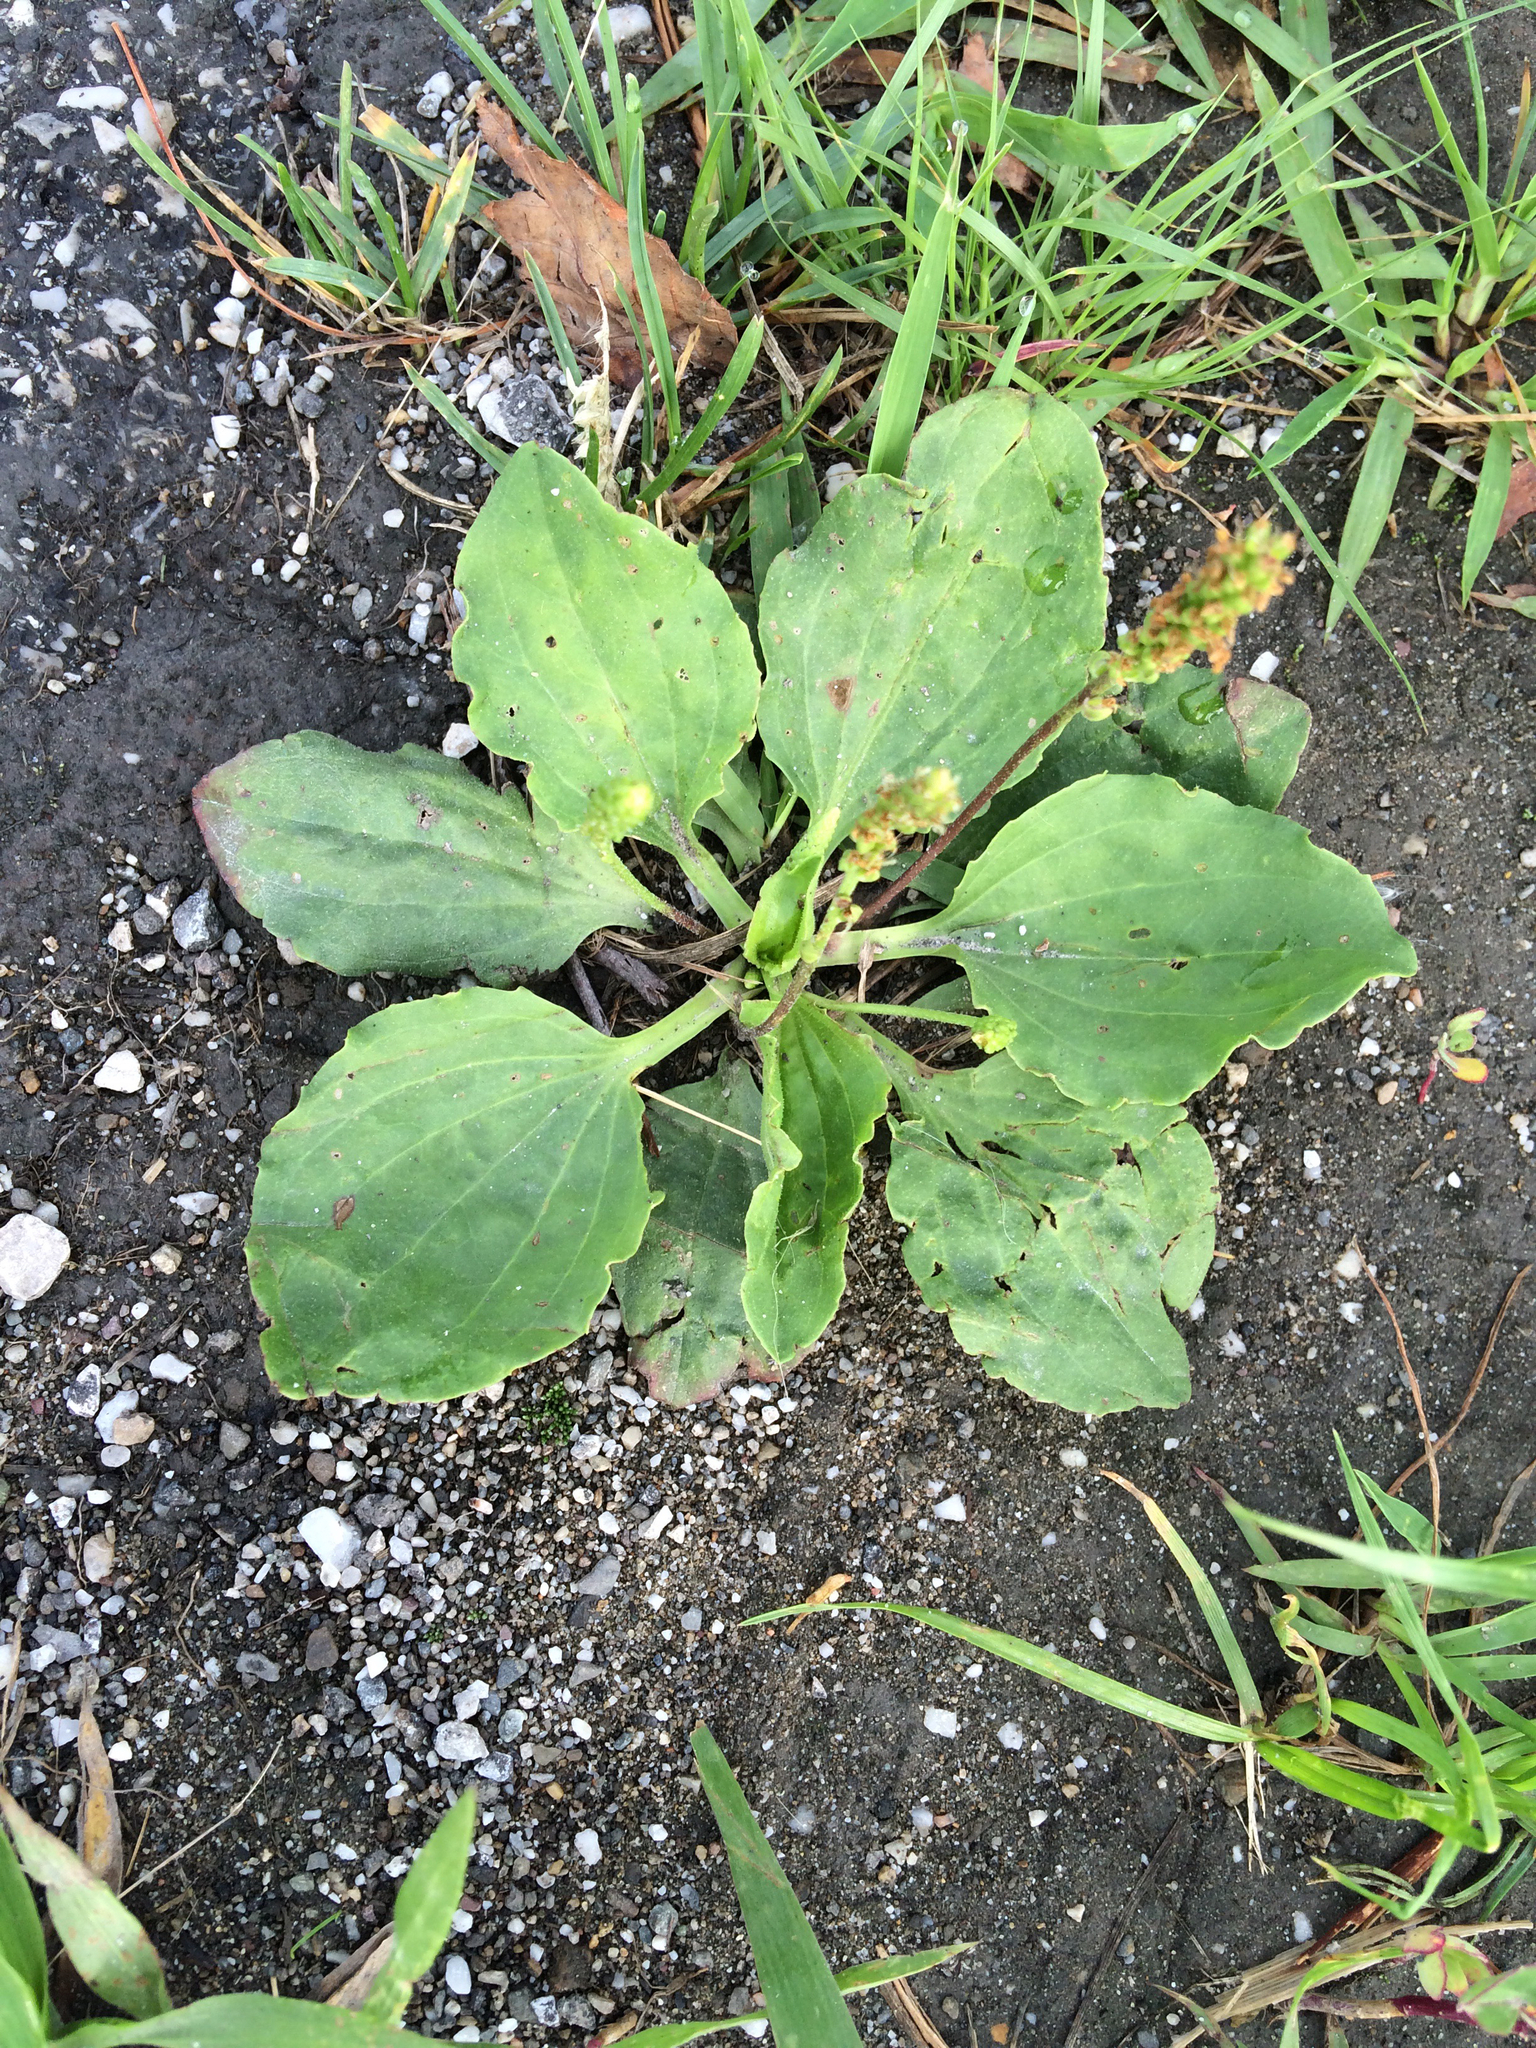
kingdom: Plantae
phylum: Tracheophyta
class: Magnoliopsida
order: Lamiales
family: Plantaginaceae
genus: Plantago
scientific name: Plantago major
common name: Common plantain
